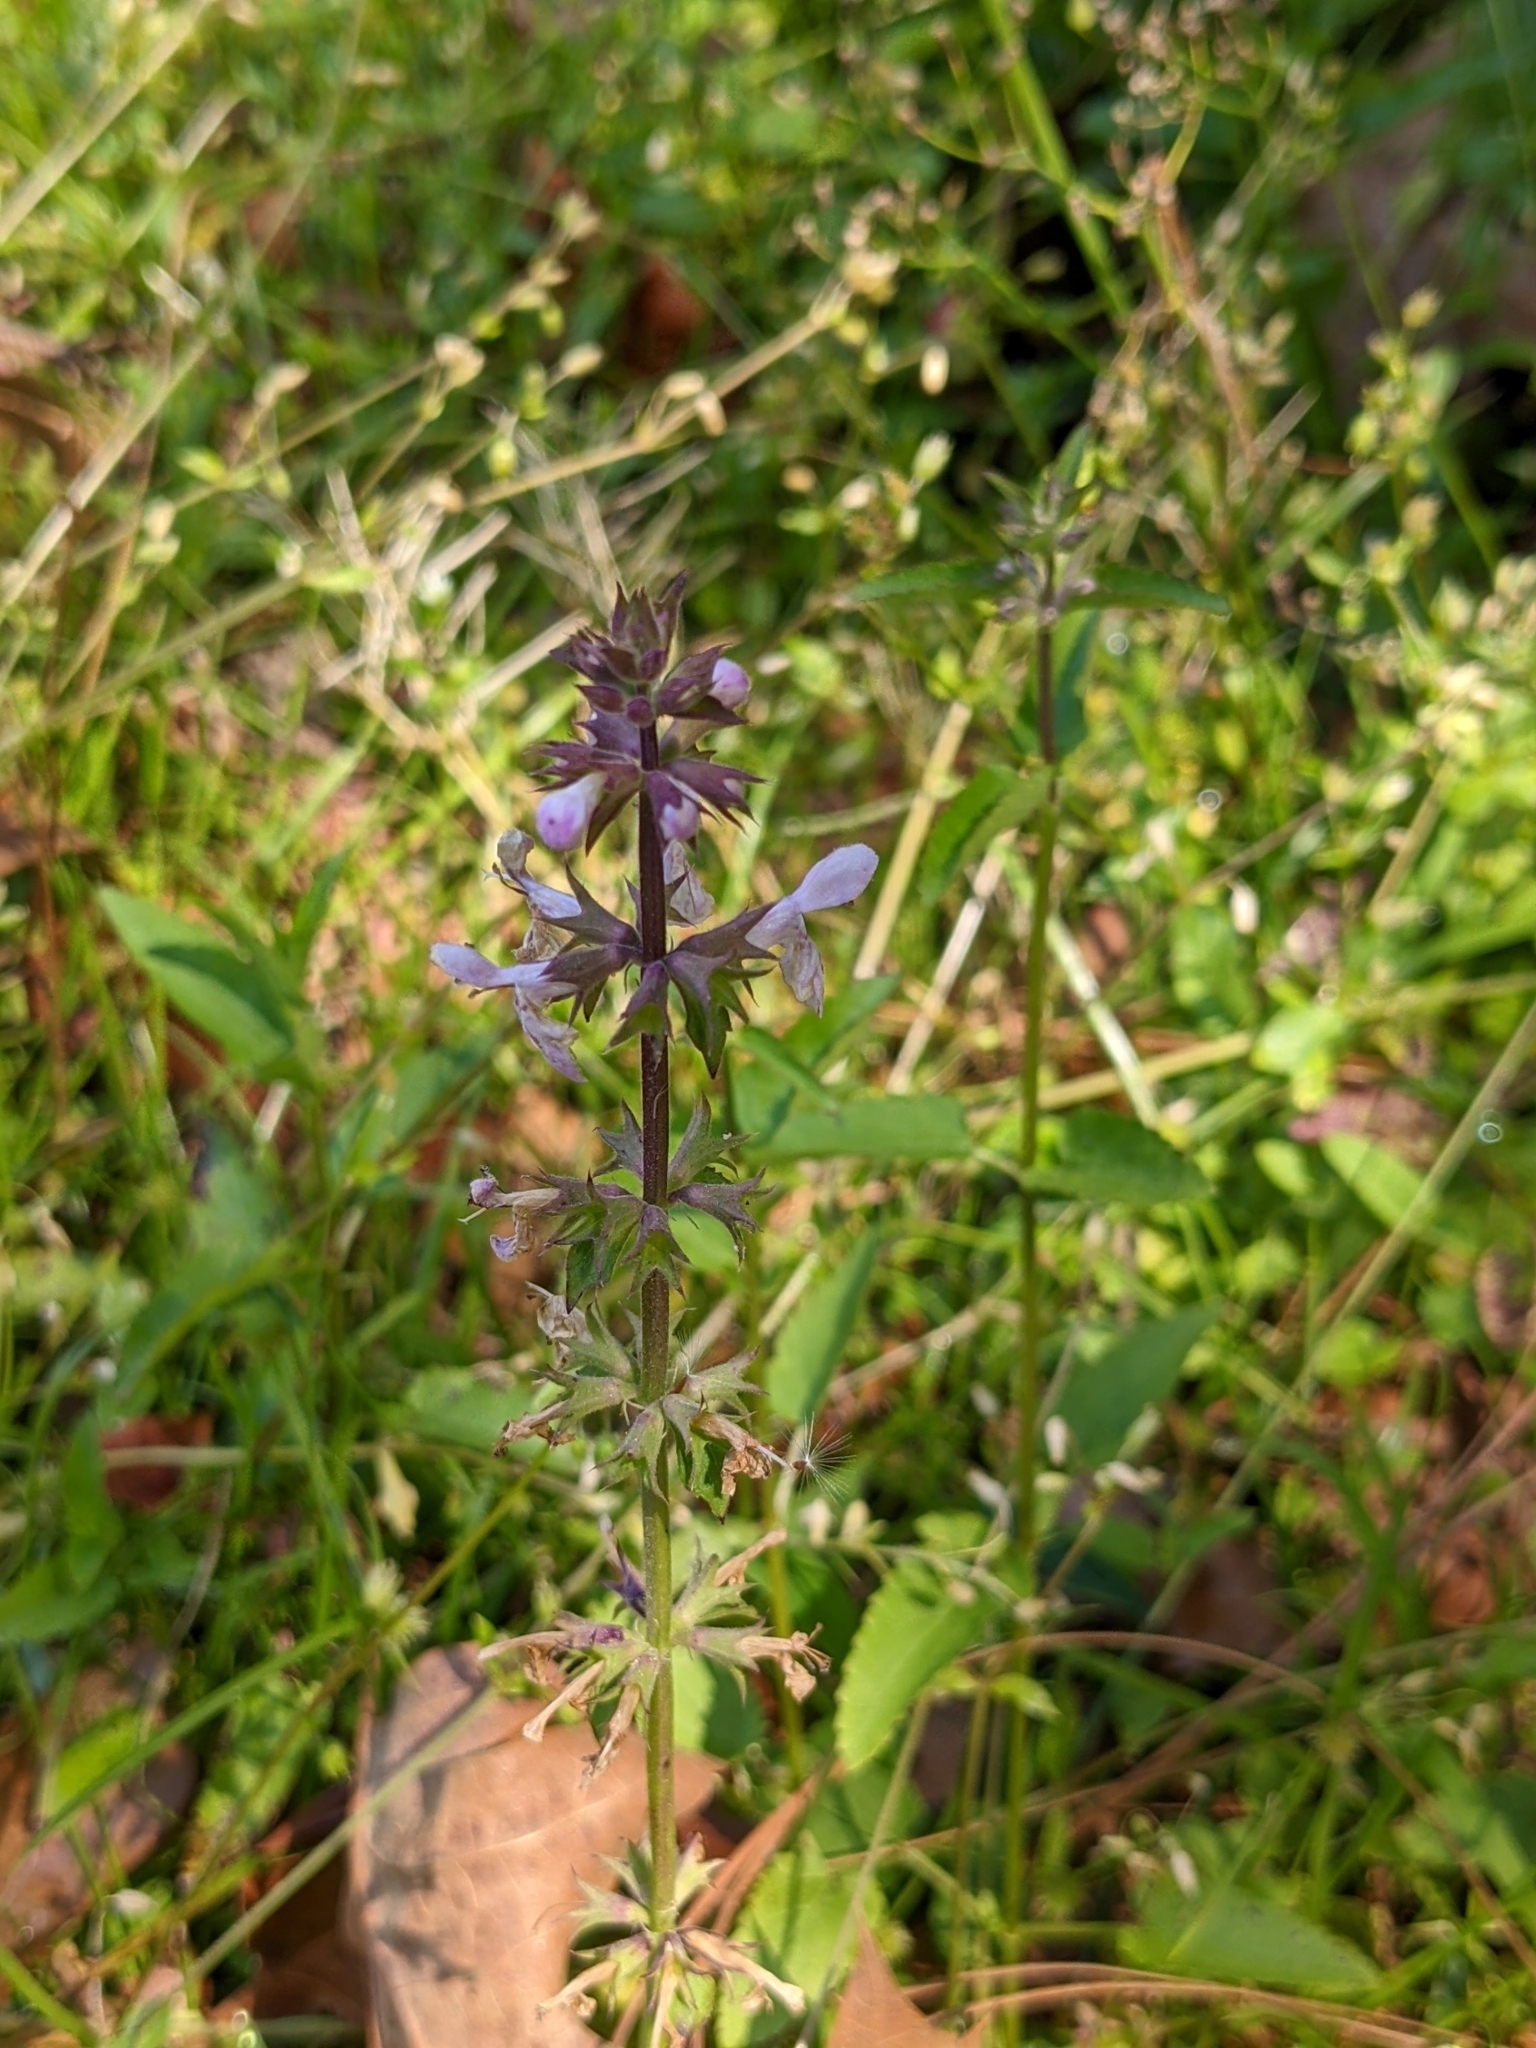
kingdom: Plantae
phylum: Tracheophyta
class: Magnoliopsida
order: Lamiales
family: Lamiaceae
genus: Stachys
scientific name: Stachys floridana
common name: Florida betony
